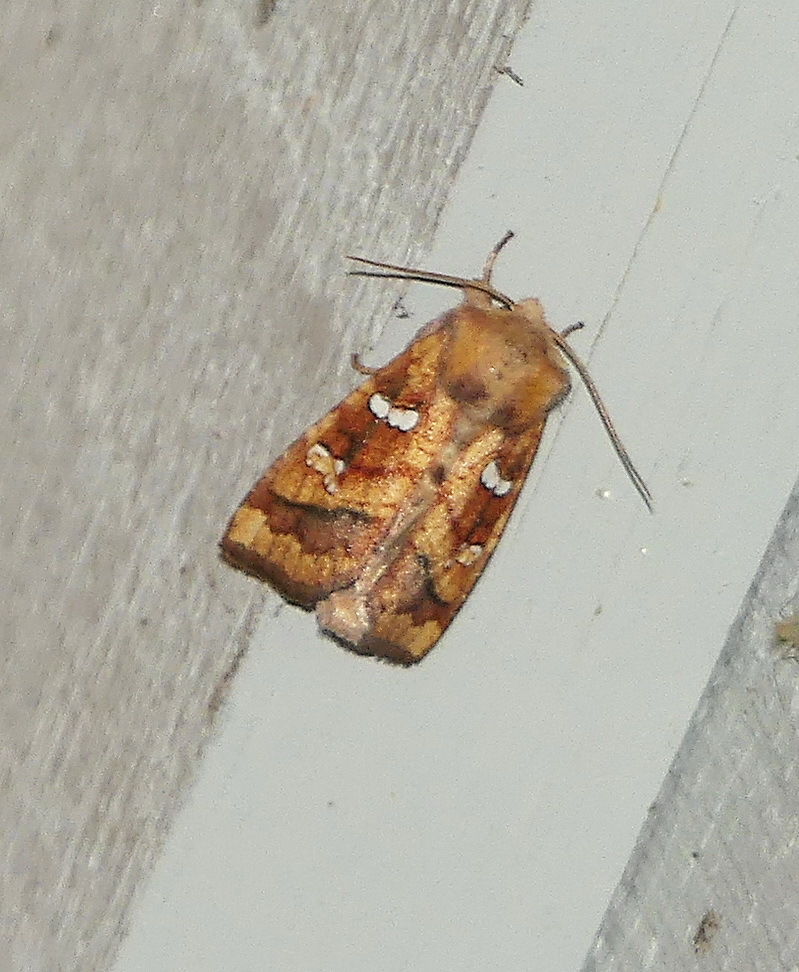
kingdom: Animalia
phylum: Arthropoda
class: Insecta
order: Lepidoptera
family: Noctuidae
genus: Papaipema
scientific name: Papaipema pterisii
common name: Bracken borer moth
